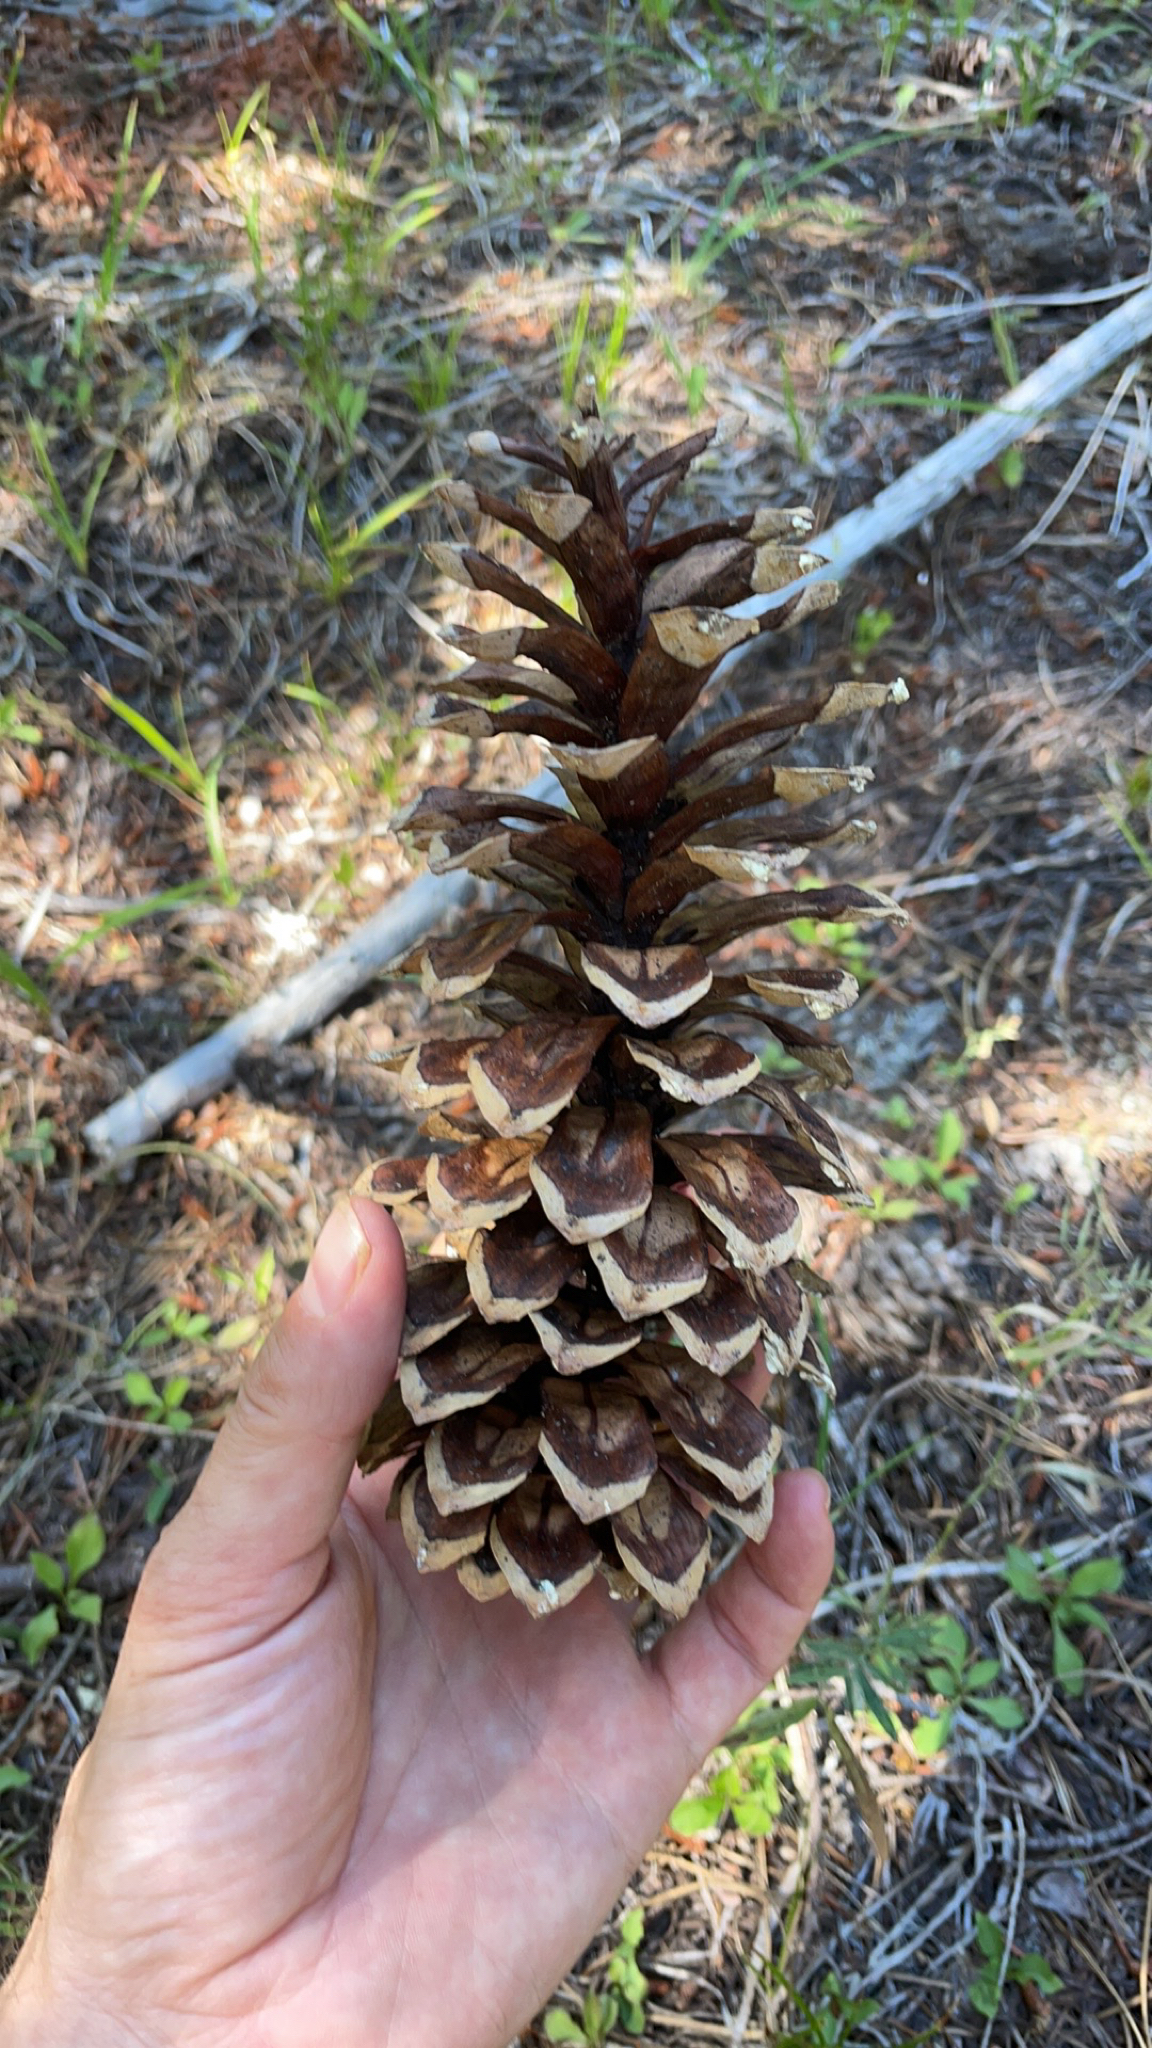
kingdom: Plantae
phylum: Tracheophyta
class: Pinopsida
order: Pinales
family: Pinaceae
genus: Pinus
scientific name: Pinus monticola
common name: Western white pine
